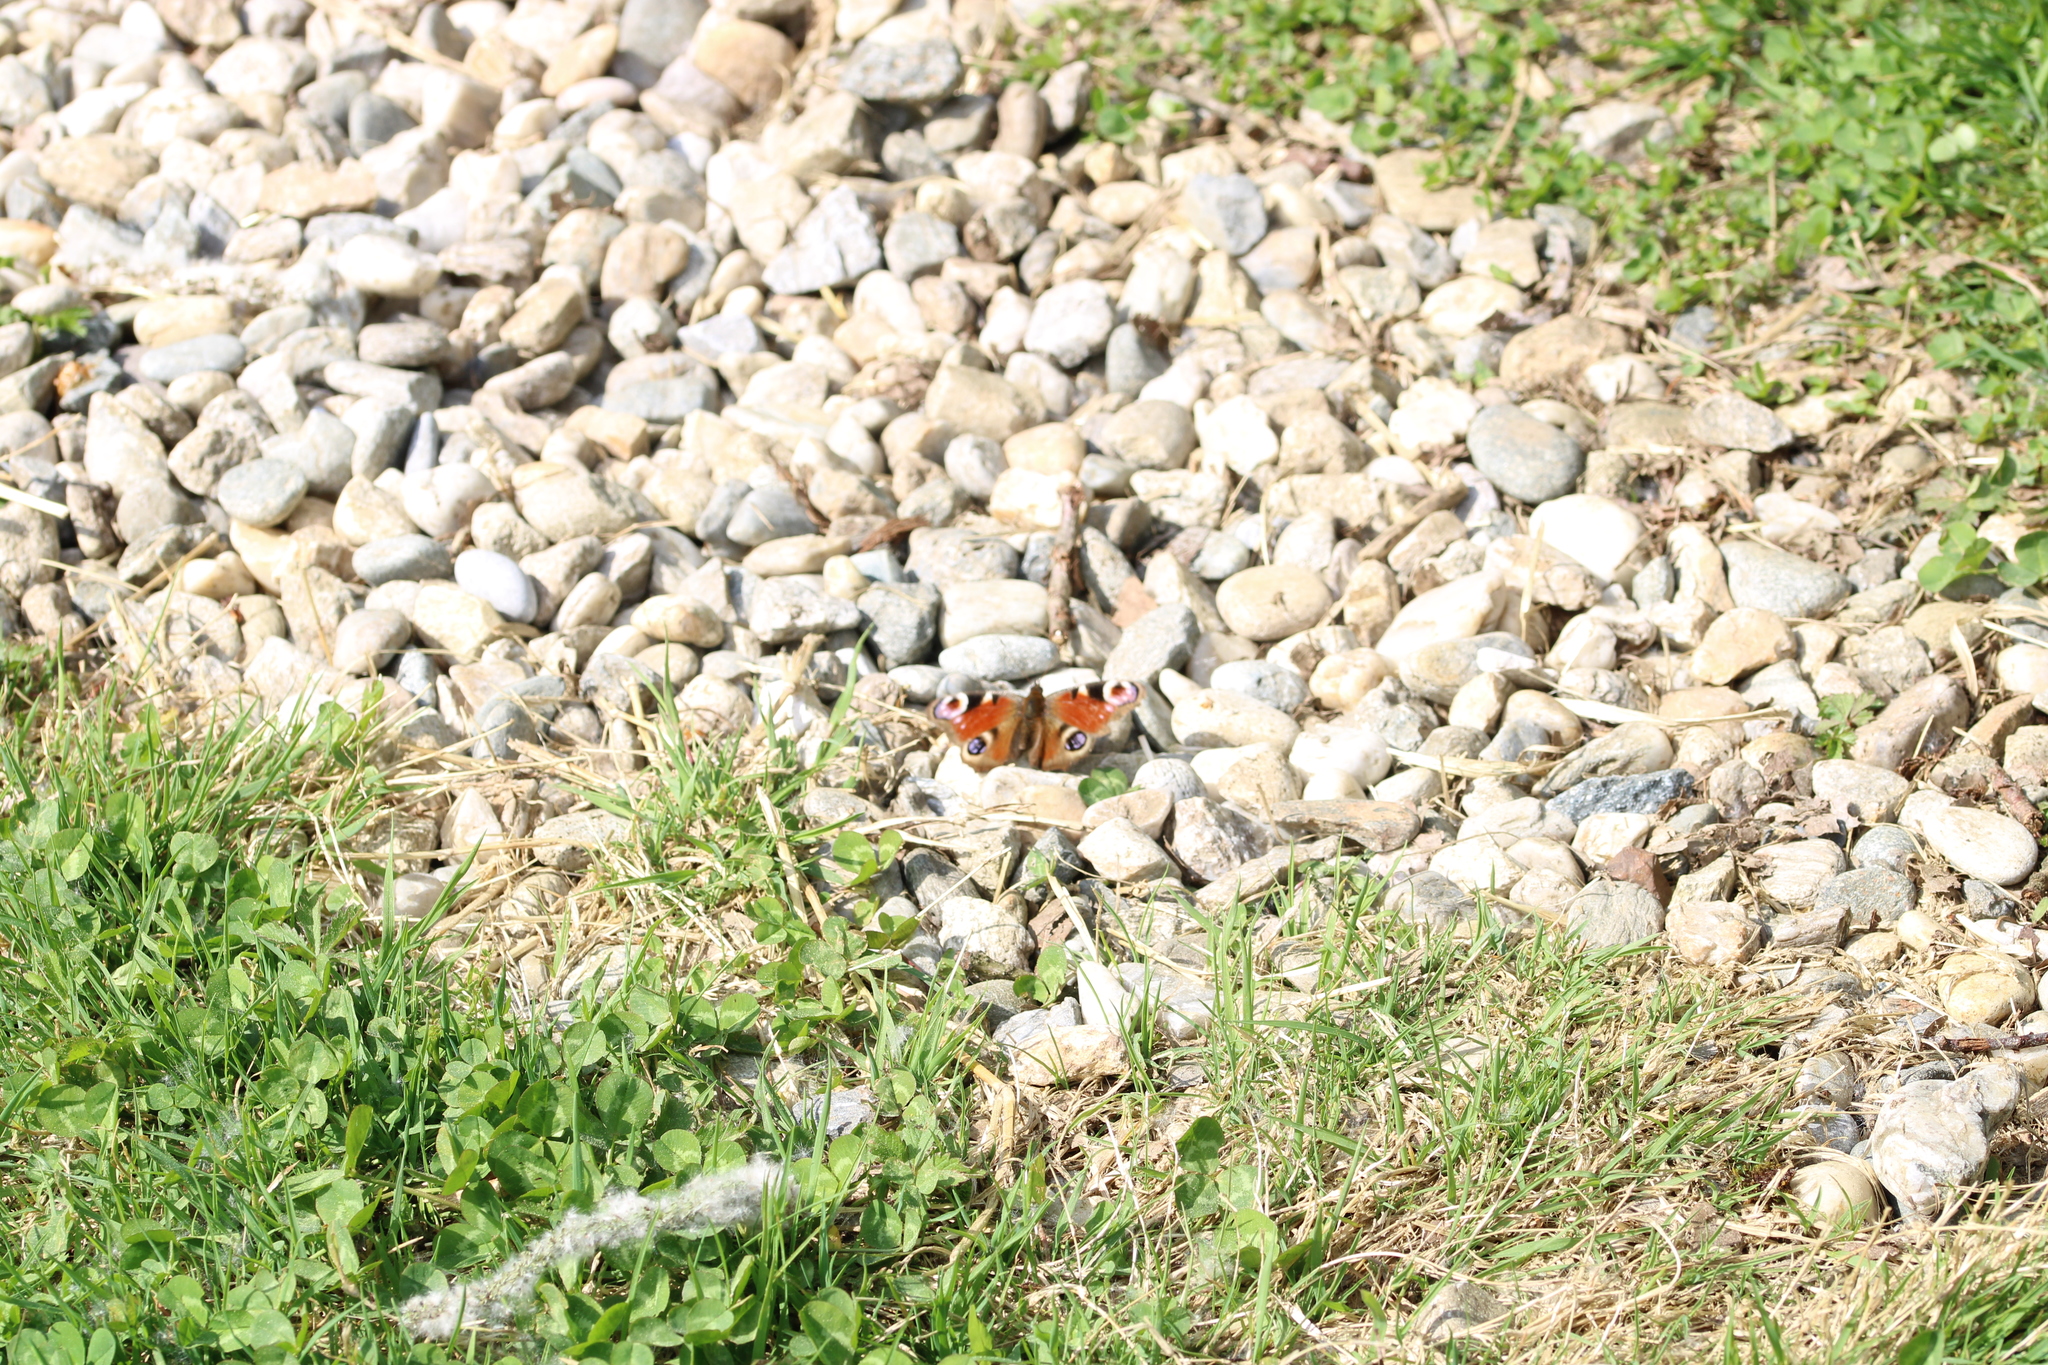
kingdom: Animalia
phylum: Arthropoda
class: Insecta
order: Lepidoptera
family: Nymphalidae
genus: Aglais
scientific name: Aglais io
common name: Peacock
